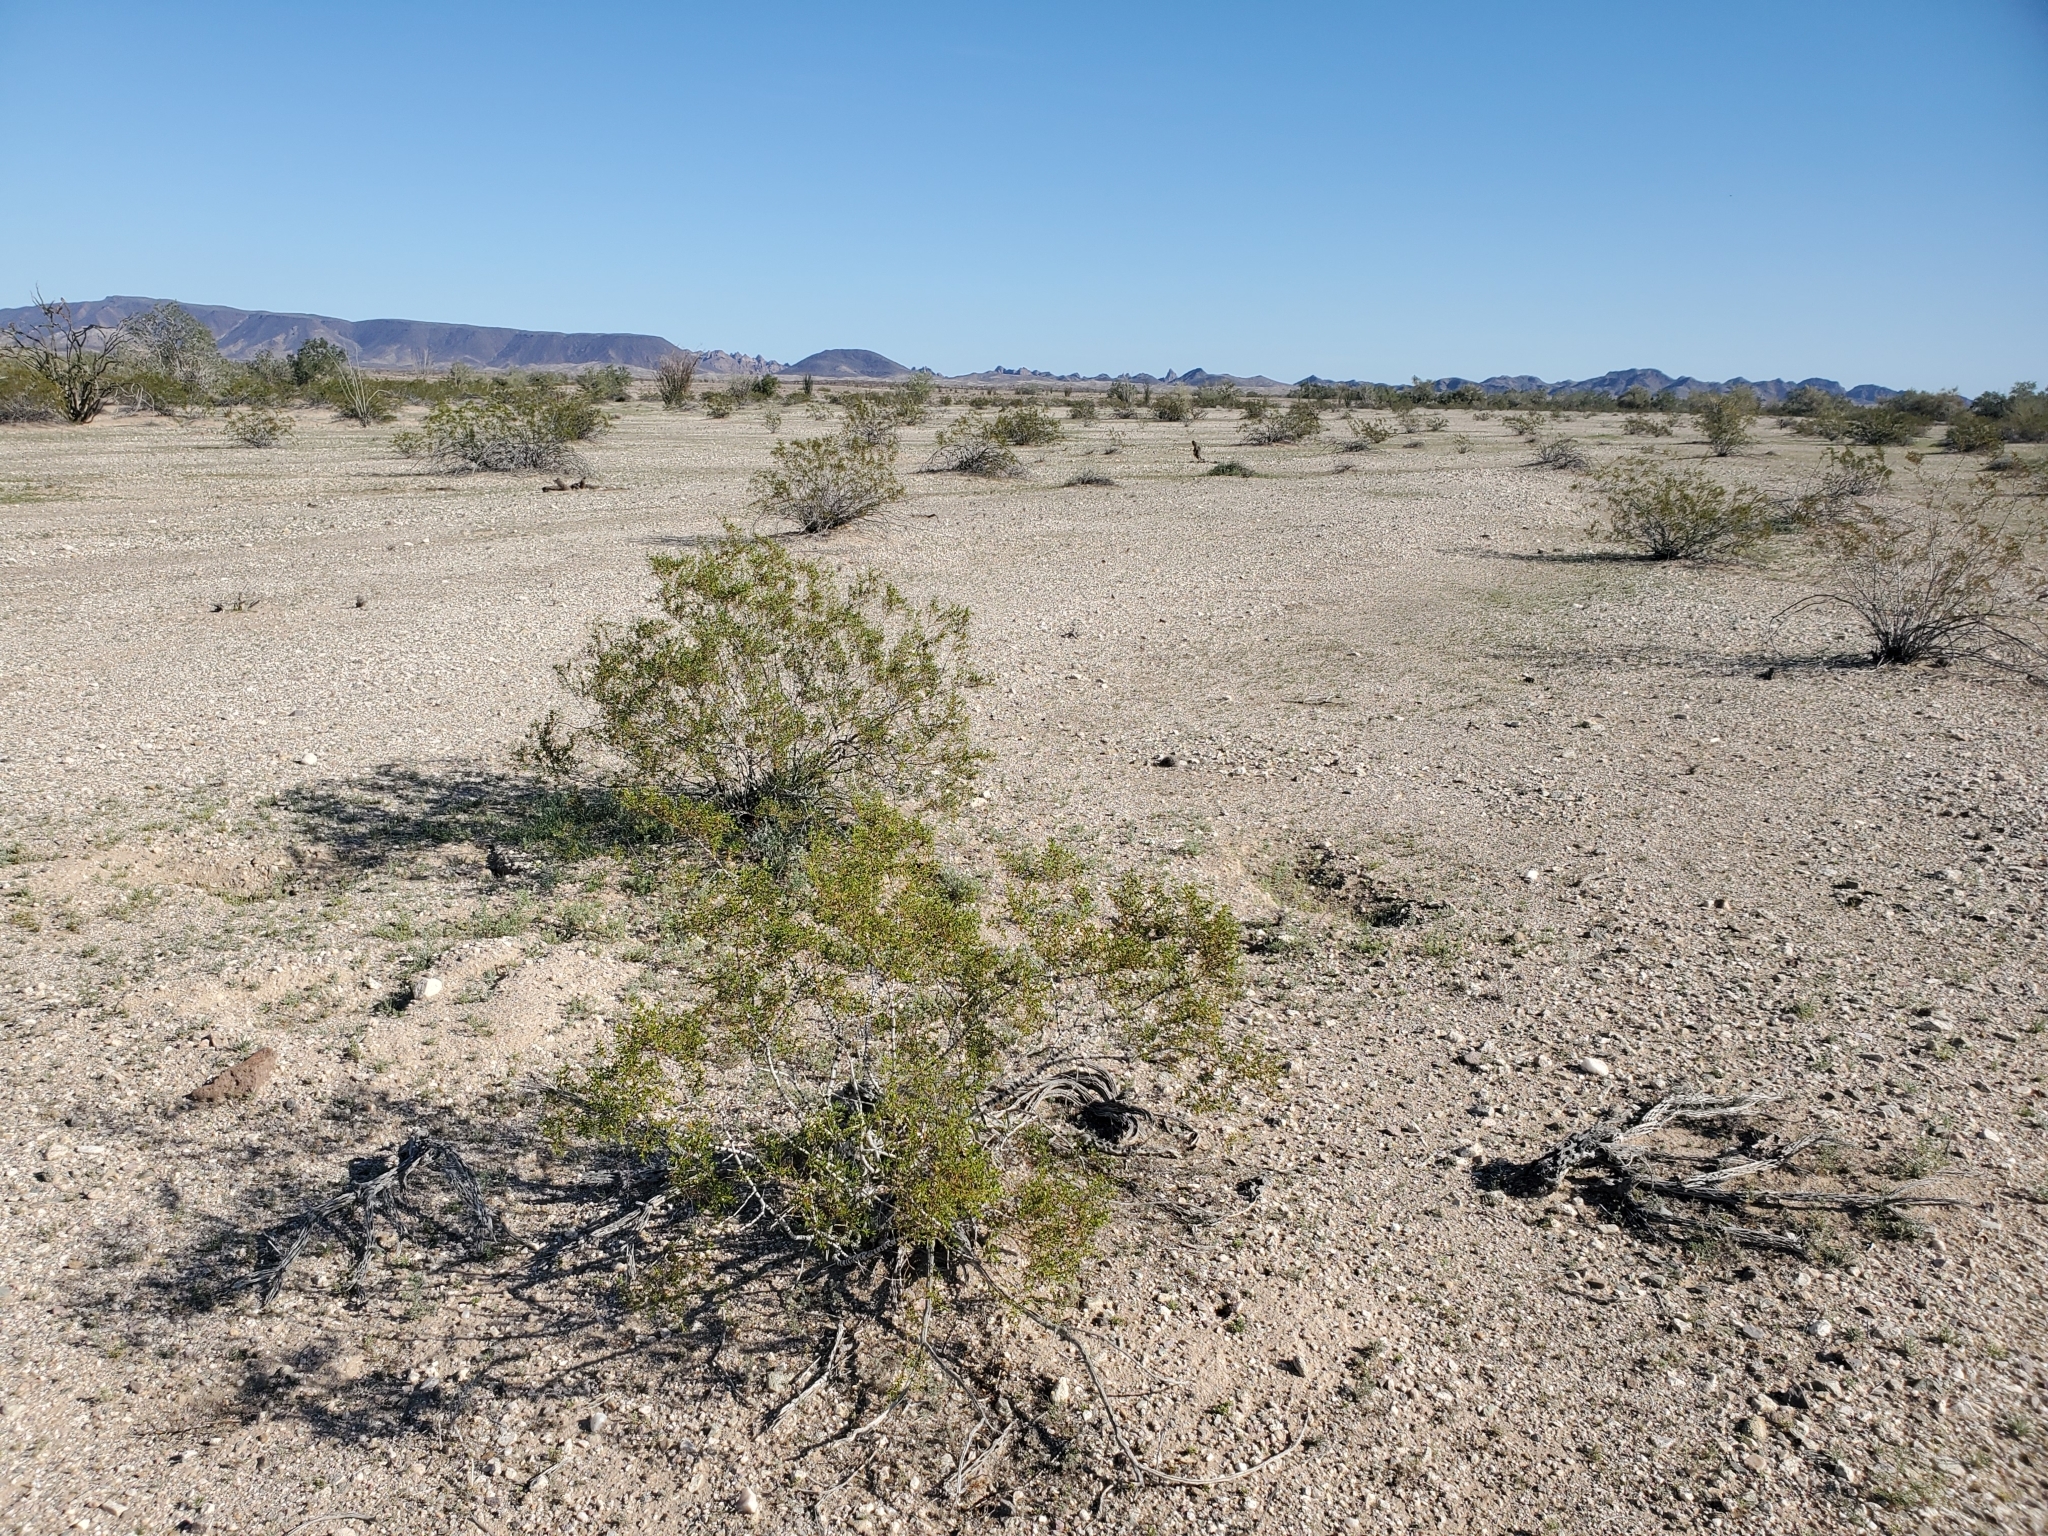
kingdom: Plantae
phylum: Tracheophyta
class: Magnoliopsida
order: Zygophyllales
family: Zygophyllaceae
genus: Larrea
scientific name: Larrea tridentata
